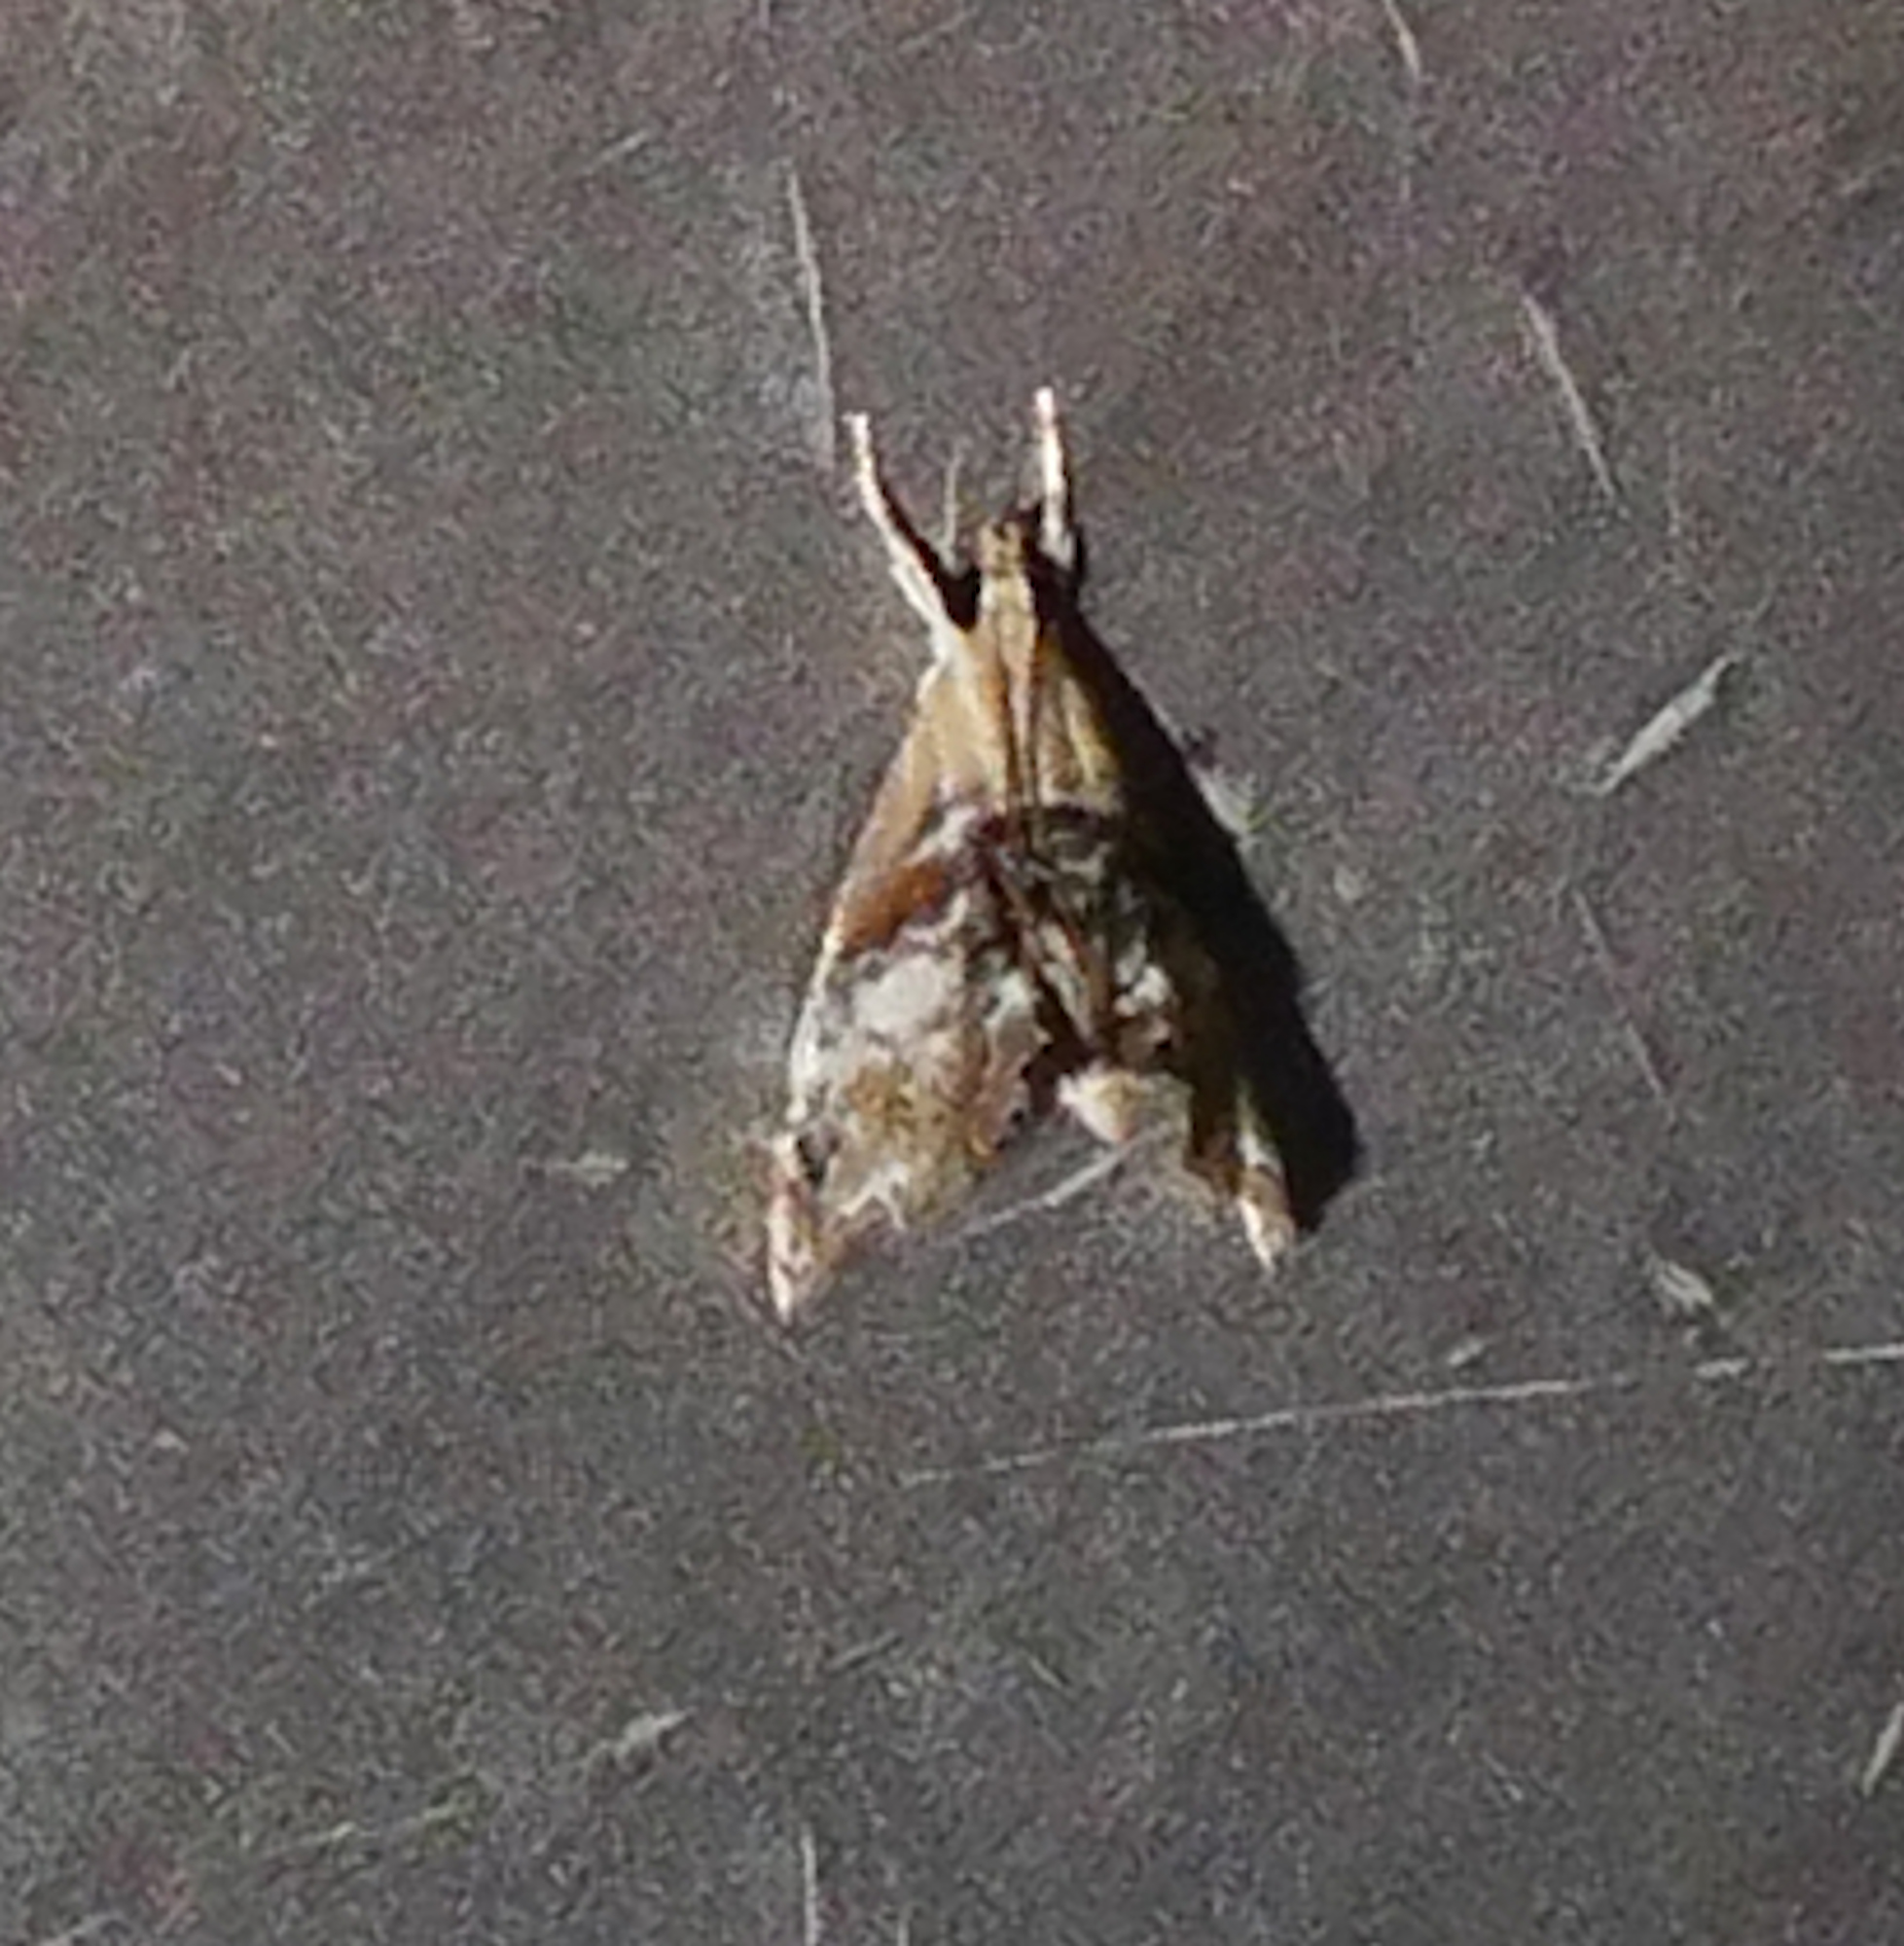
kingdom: Animalia
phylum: Arthropoda
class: Insecta
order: Lepidoptera
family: Crambidae
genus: Dicymolomia
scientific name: Dicymolomia julianalis
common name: Julia's dicymolomia moth
